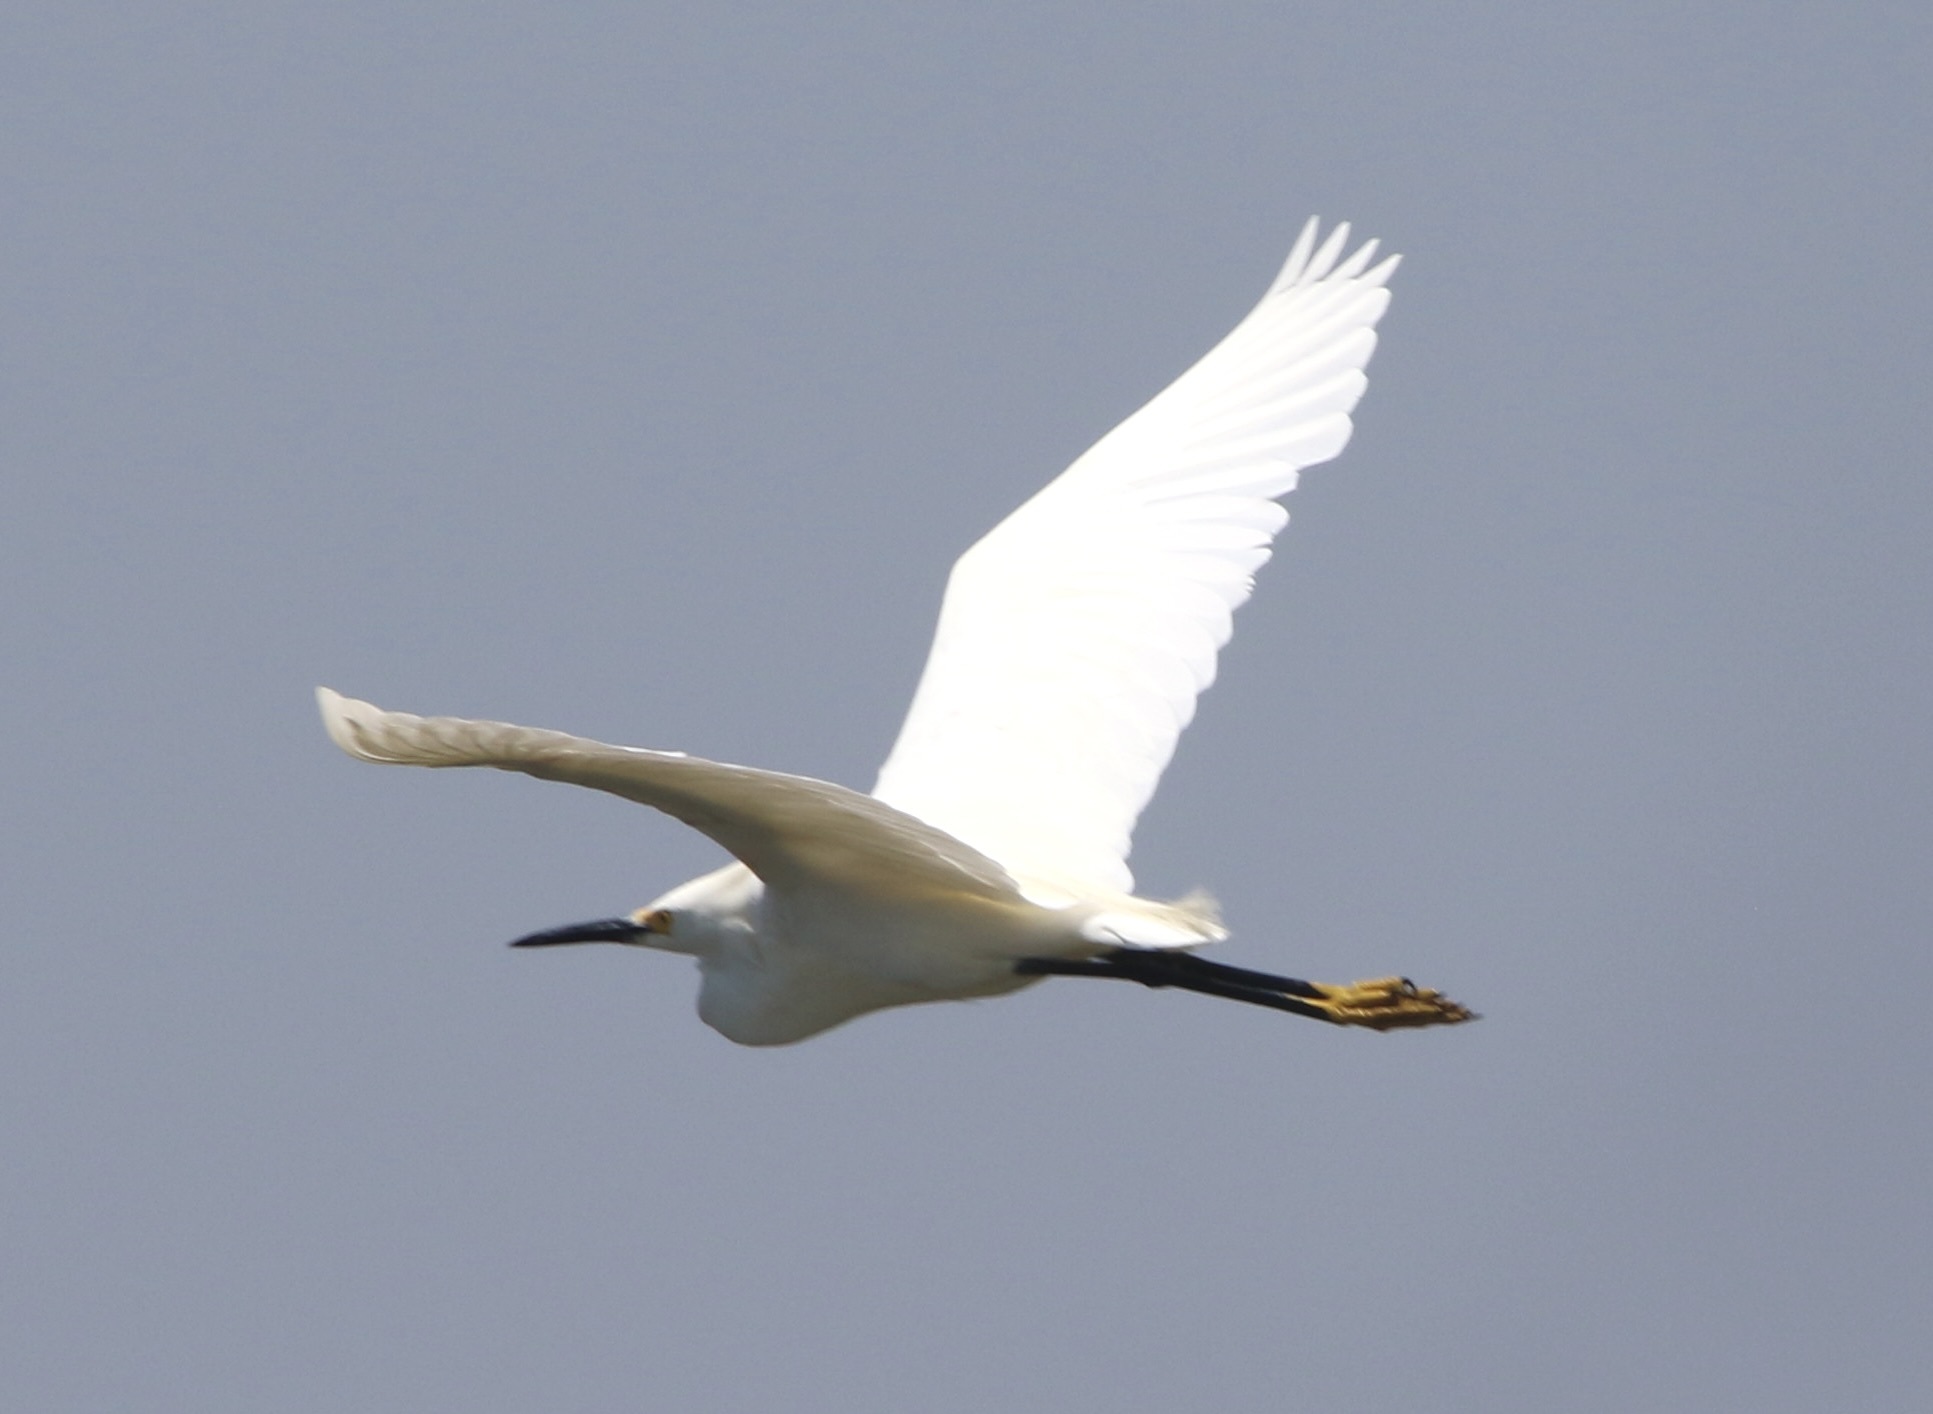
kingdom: Animalia
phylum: Chordata
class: Aves
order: Pelecaniformes
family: Ardeidae
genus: Egretta
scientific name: Egretta thula
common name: Snowy egret
